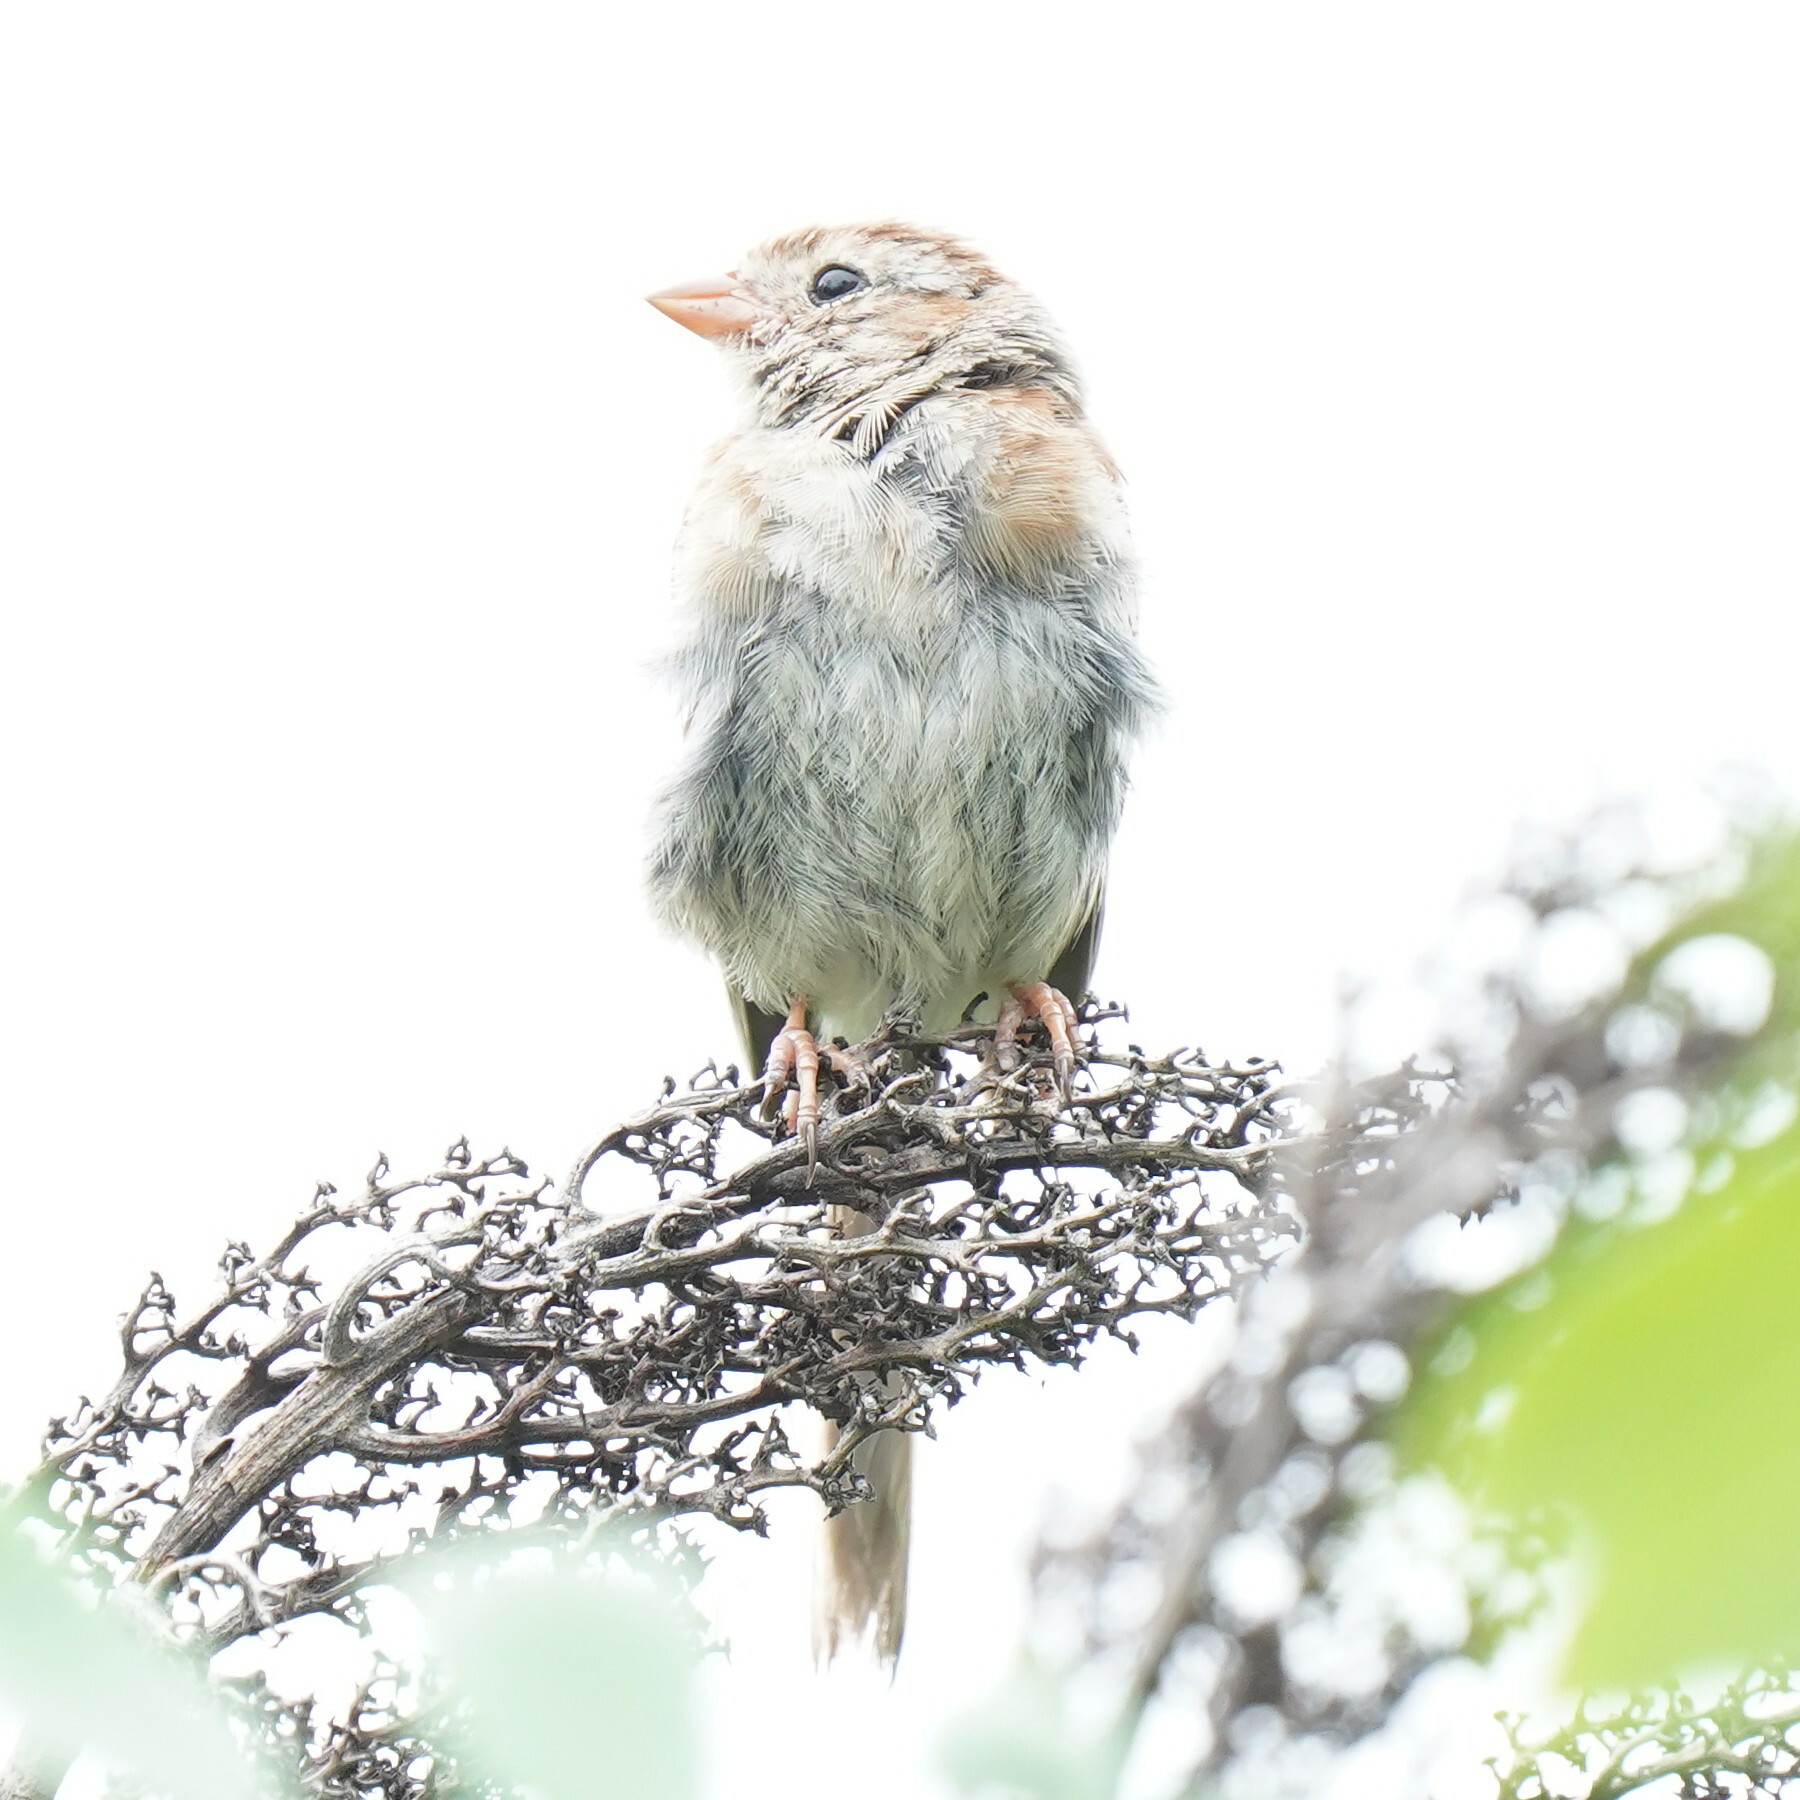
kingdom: Animalia
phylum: Chordata
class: Aves
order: Passeriformes
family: Passerellidae
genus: Spizella
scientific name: Spizella pusilla
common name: Field sparrow
